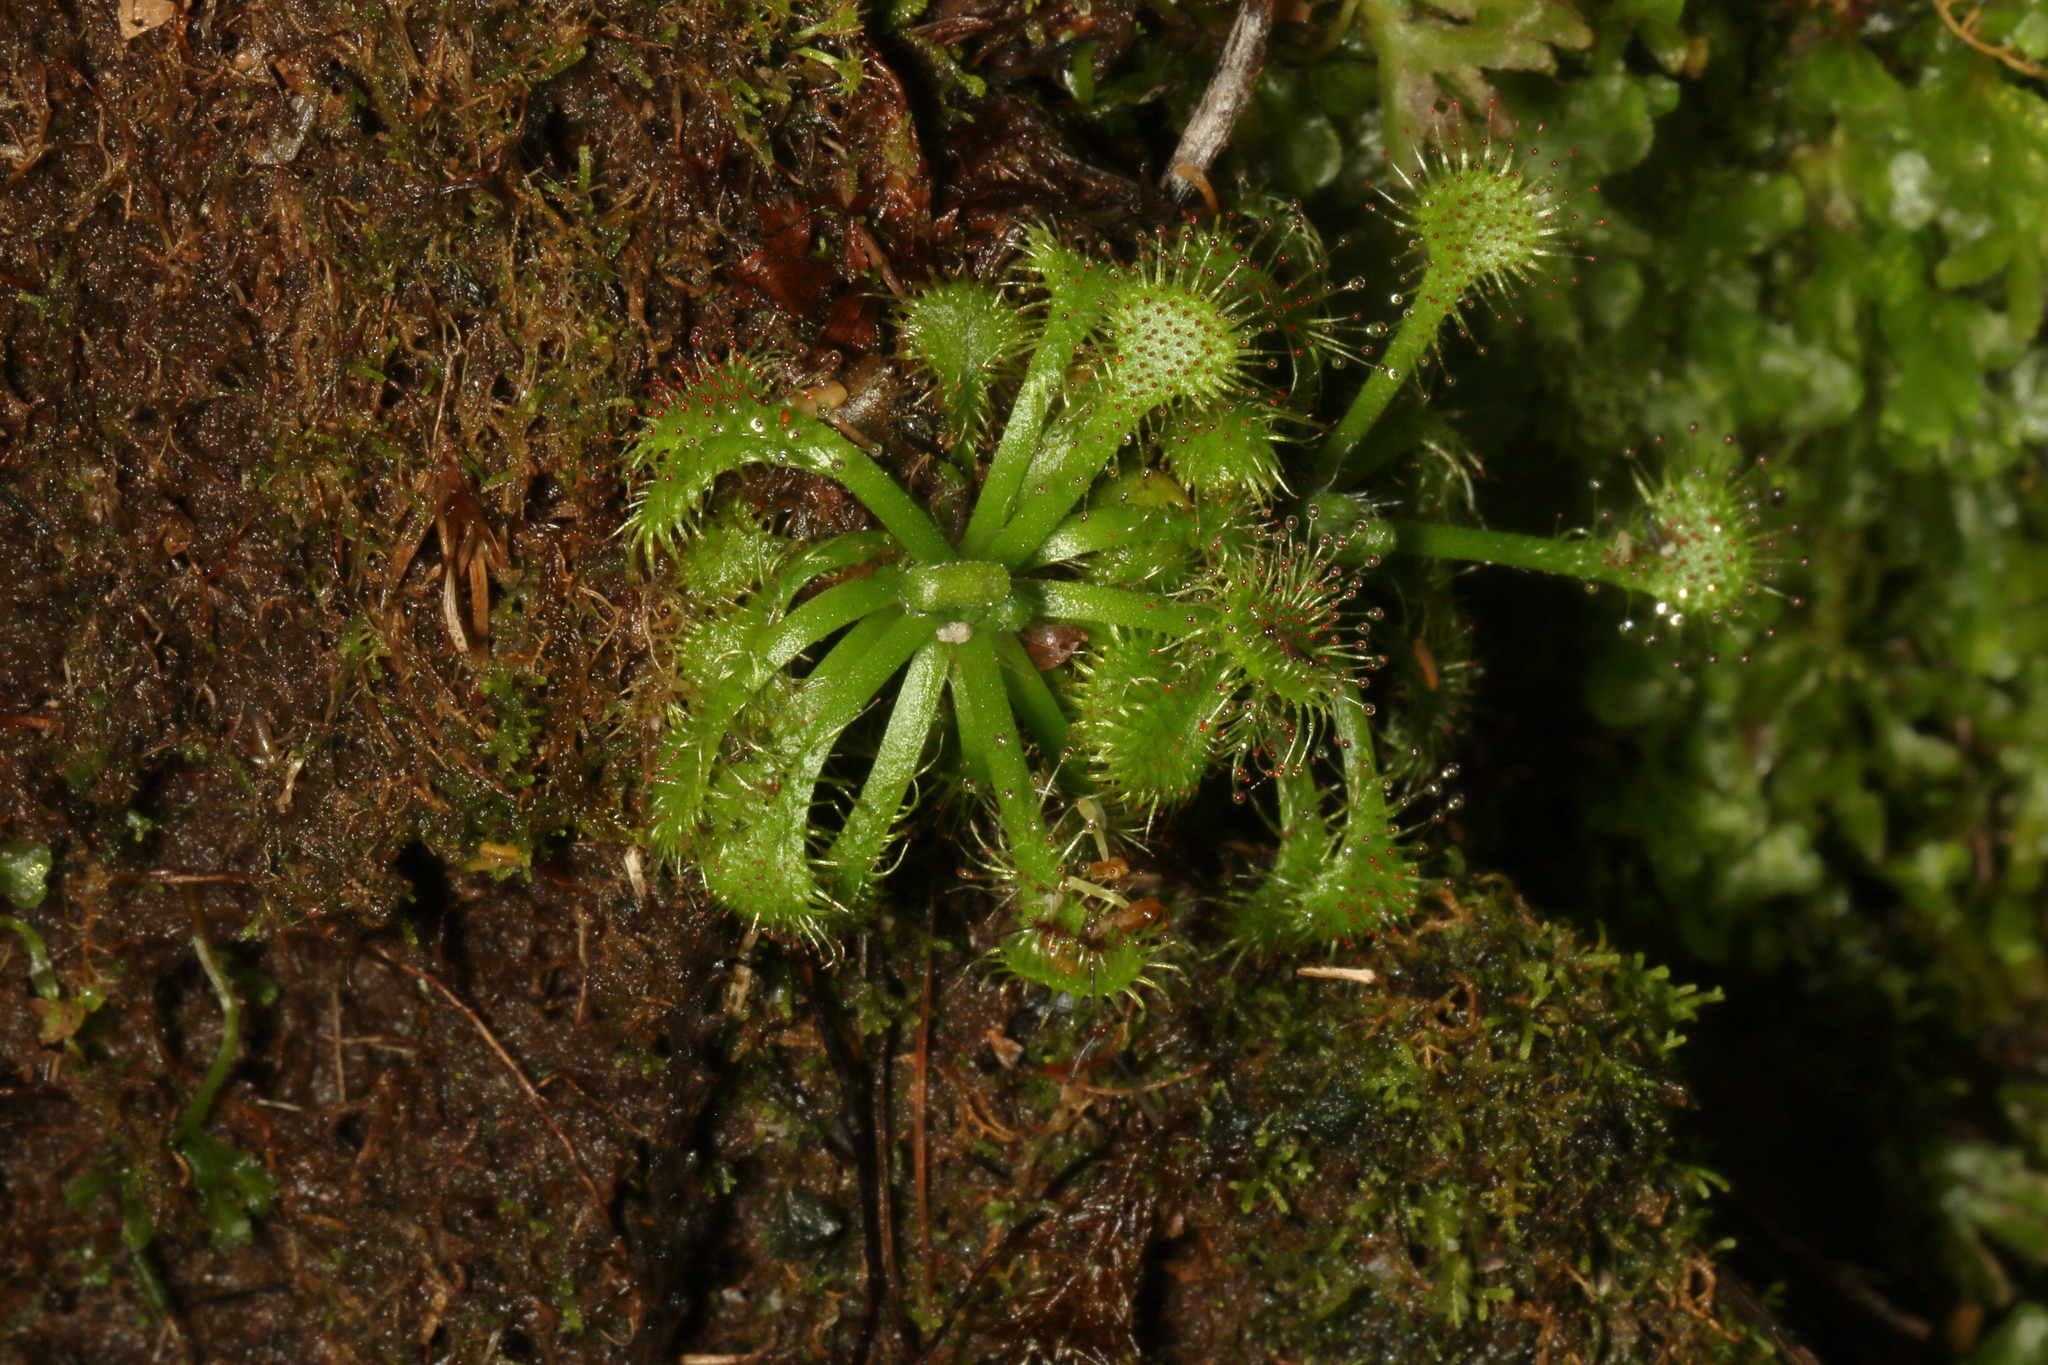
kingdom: Plantae
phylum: Tracheophyta
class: Magnoliopsida
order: Caryophyllales
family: Droseraceae
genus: Drosera
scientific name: Drosera spatulata
